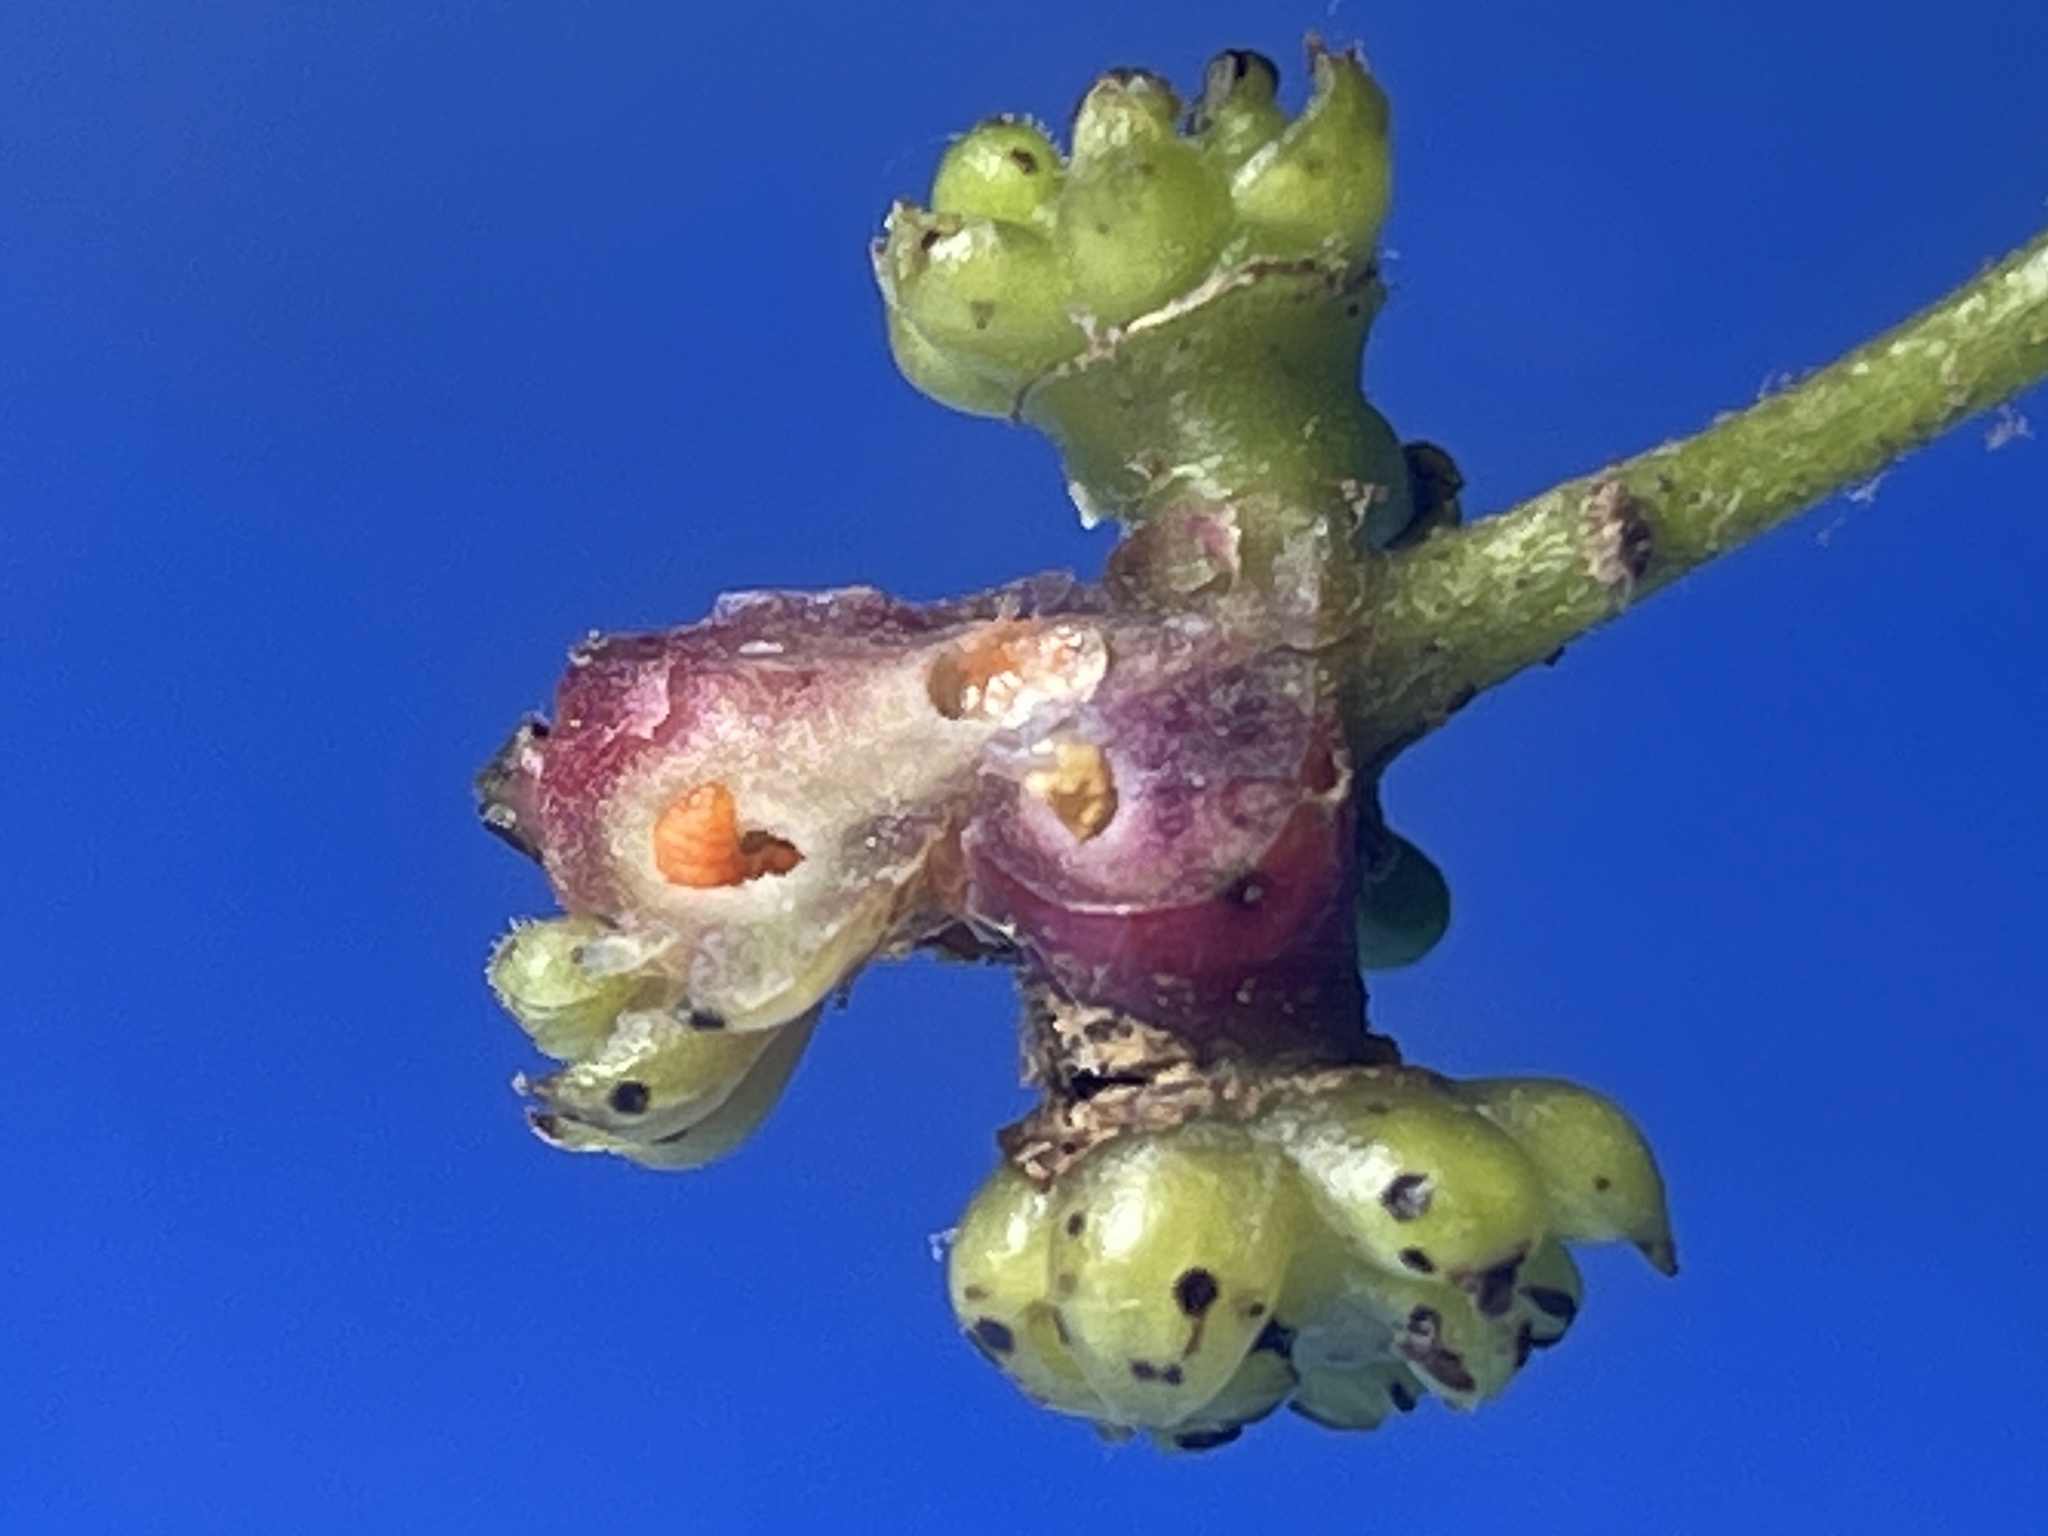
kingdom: Animalia
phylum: Arthropoda
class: Insecta
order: Diptera
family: Cecidomyiidae
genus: Vitisiella
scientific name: Vitisiella brevicauda
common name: Grape tumid gallmaker midge
